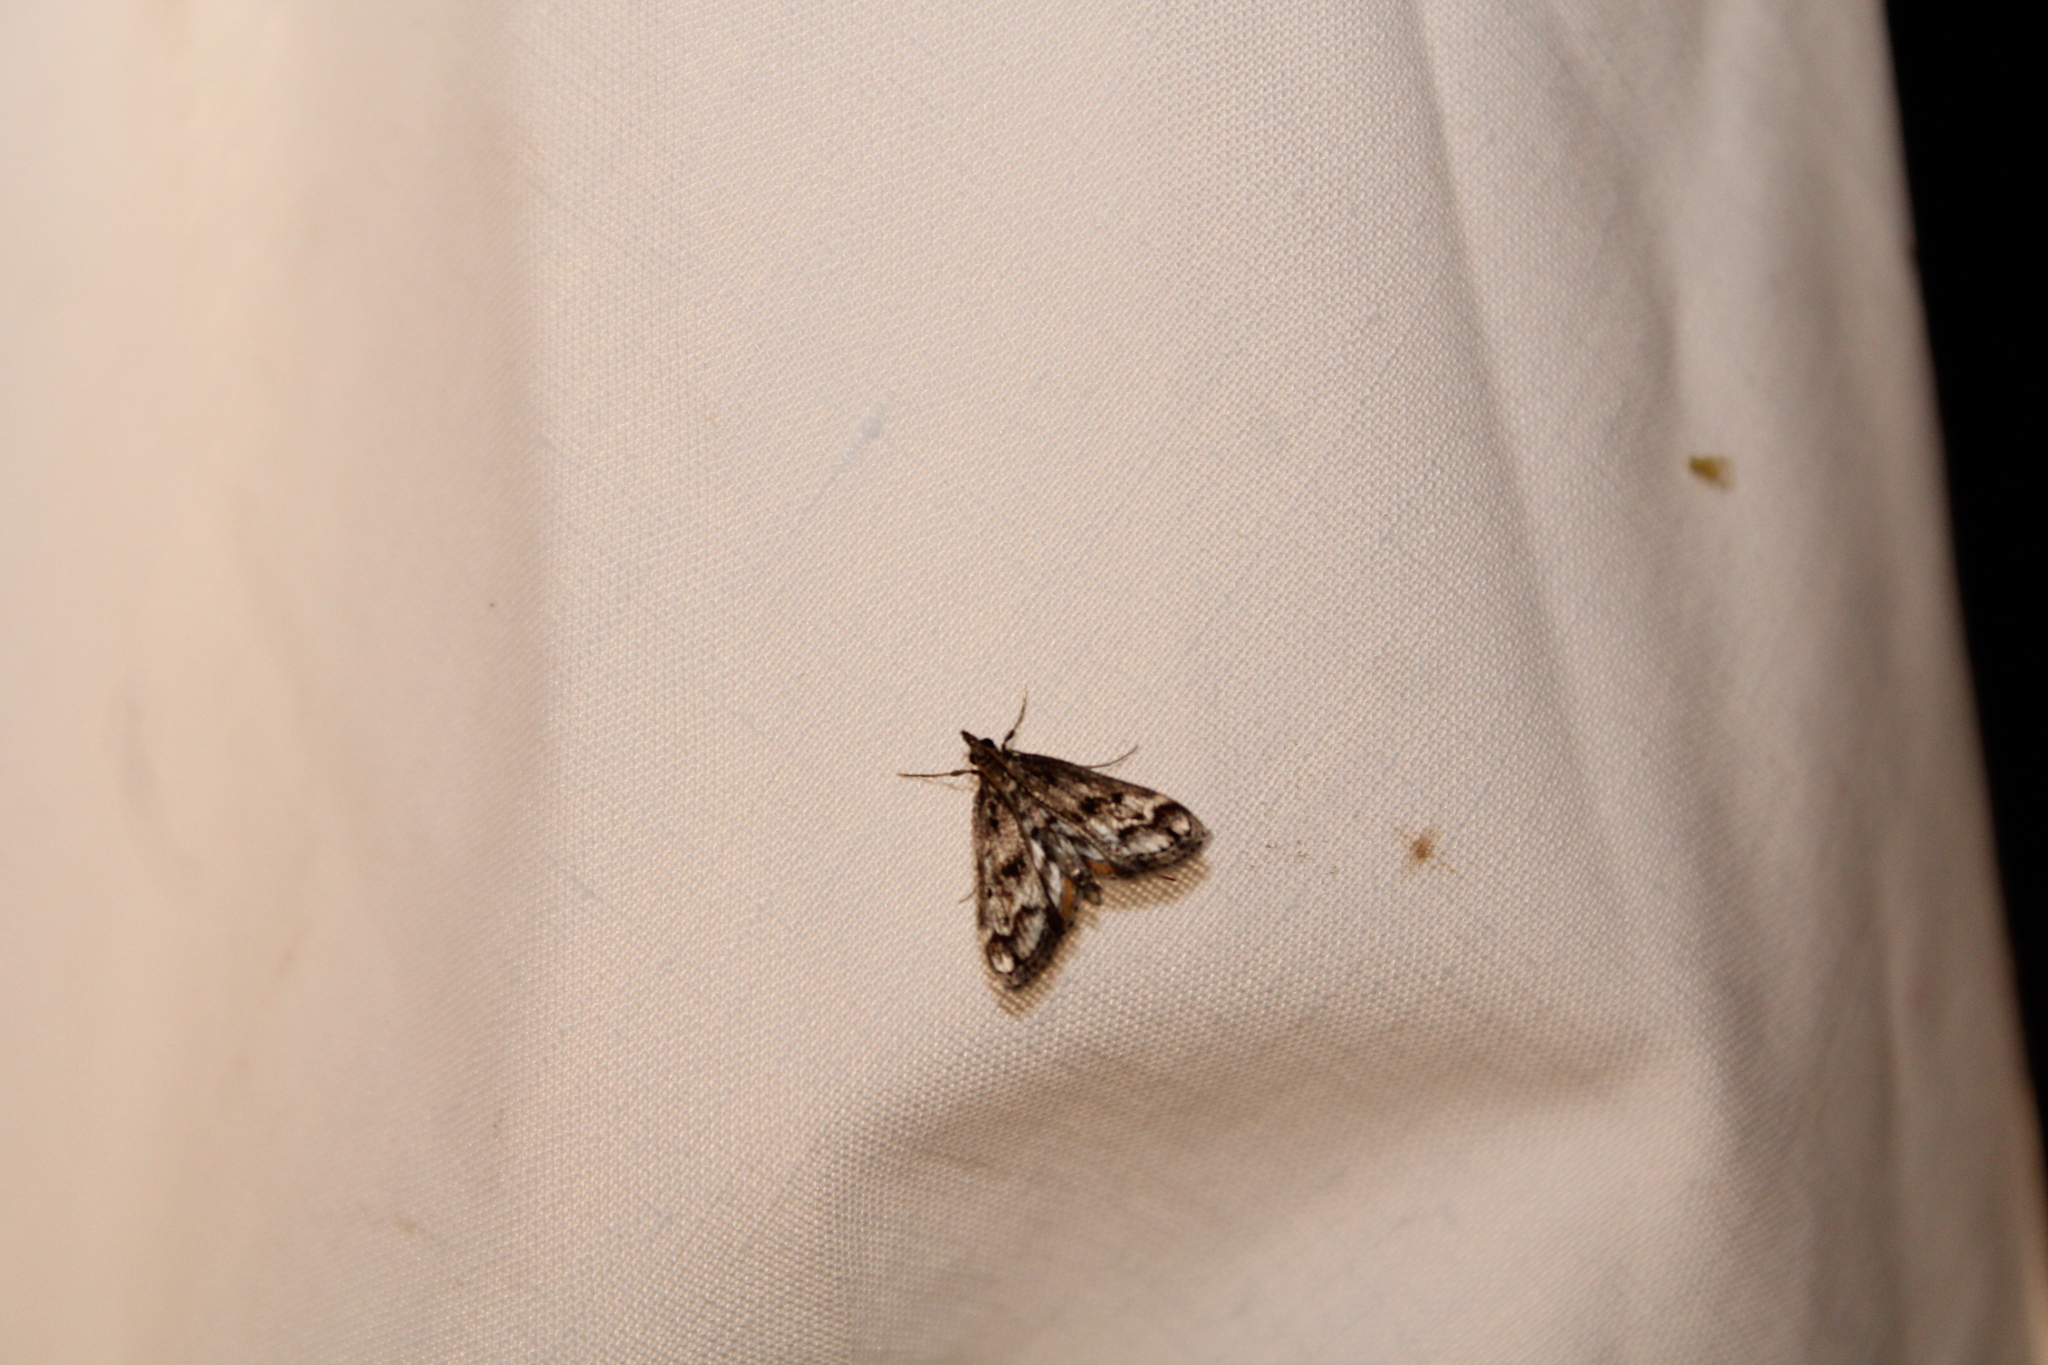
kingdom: Animalia
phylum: Arthropoda
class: Insecta
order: Lepidoptera
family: Crambidae
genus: Parapoynx
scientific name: Parapoynx obscuralis
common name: American china-mark
